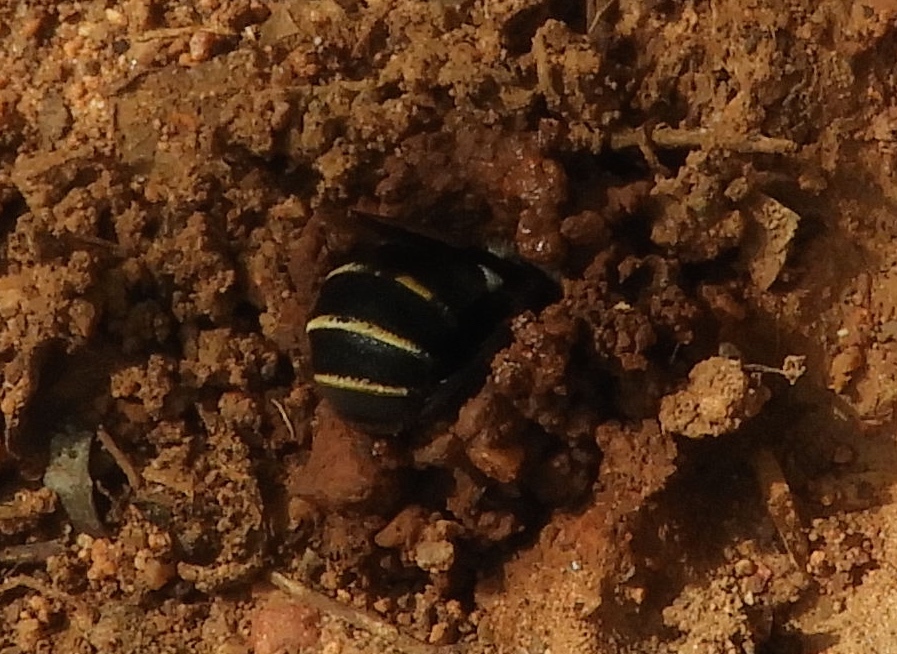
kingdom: Animalia
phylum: Arthropoda
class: Insecta
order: Hymenoptera
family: Apidae
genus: Melitoma
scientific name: Melitoma
